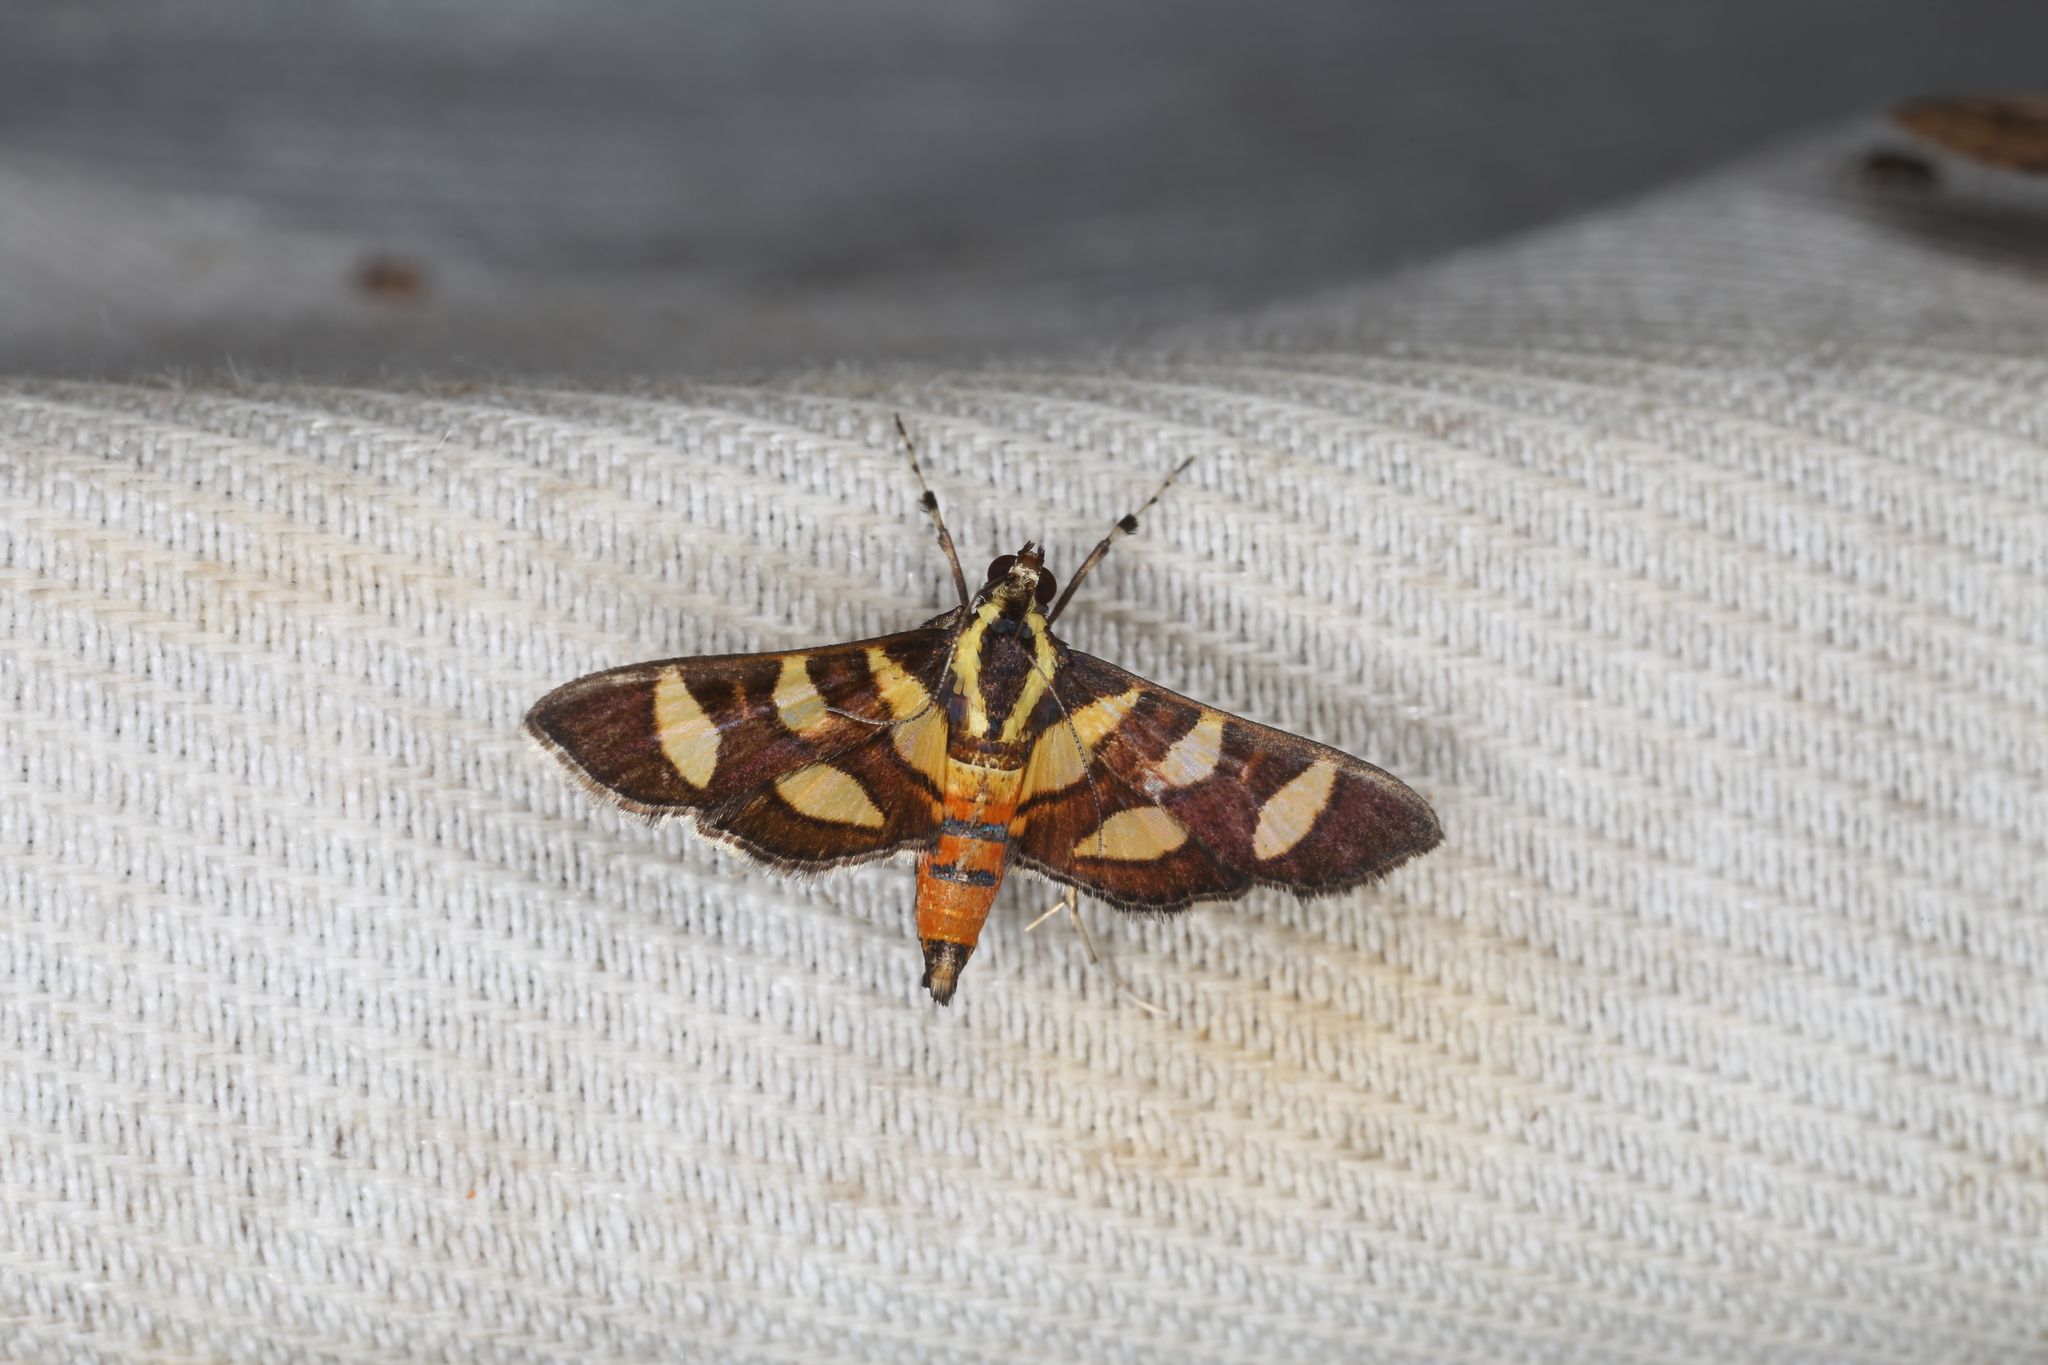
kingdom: Animalia
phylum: Arthropoda
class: Insecta
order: Lepidoptera
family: Crambidae
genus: Syngamia
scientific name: Syngamia florella
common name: Orange-spotted flower moth
